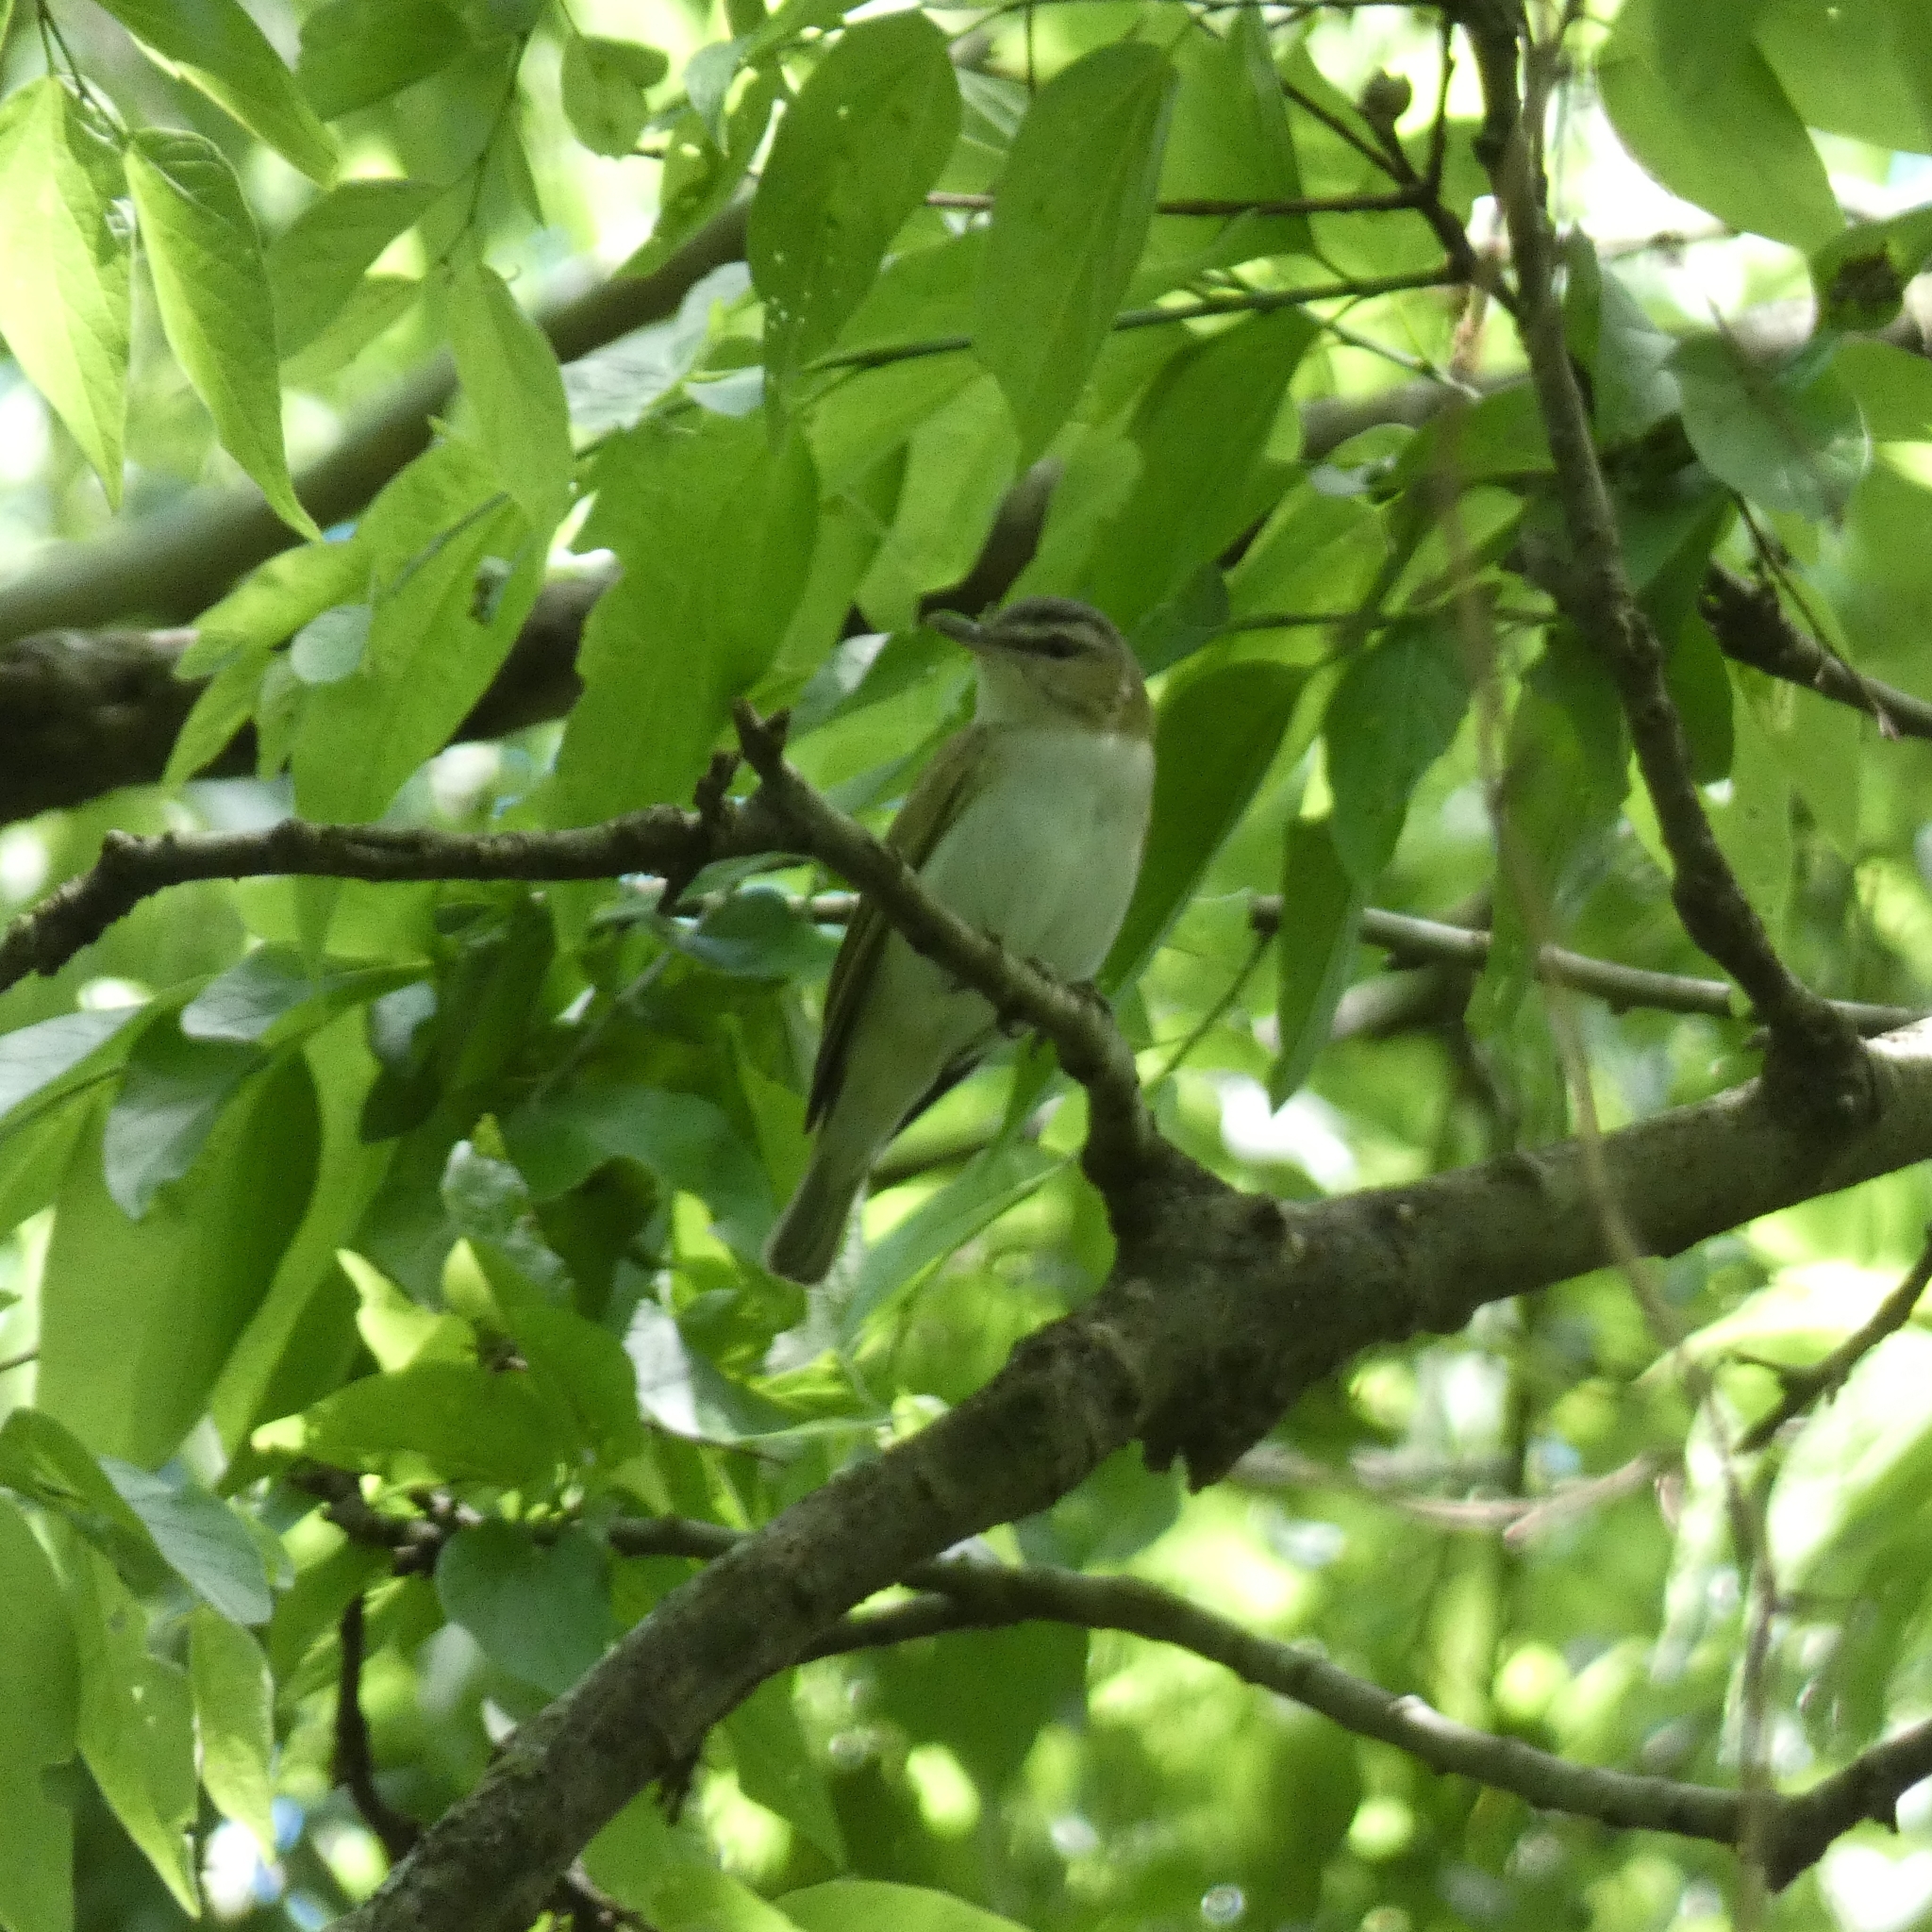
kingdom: Animalia
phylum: Chordata
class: Aves
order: Passeriformes
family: Vireonidae
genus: Vireo
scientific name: Vireo olivaceus
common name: Red-eyed vireo
